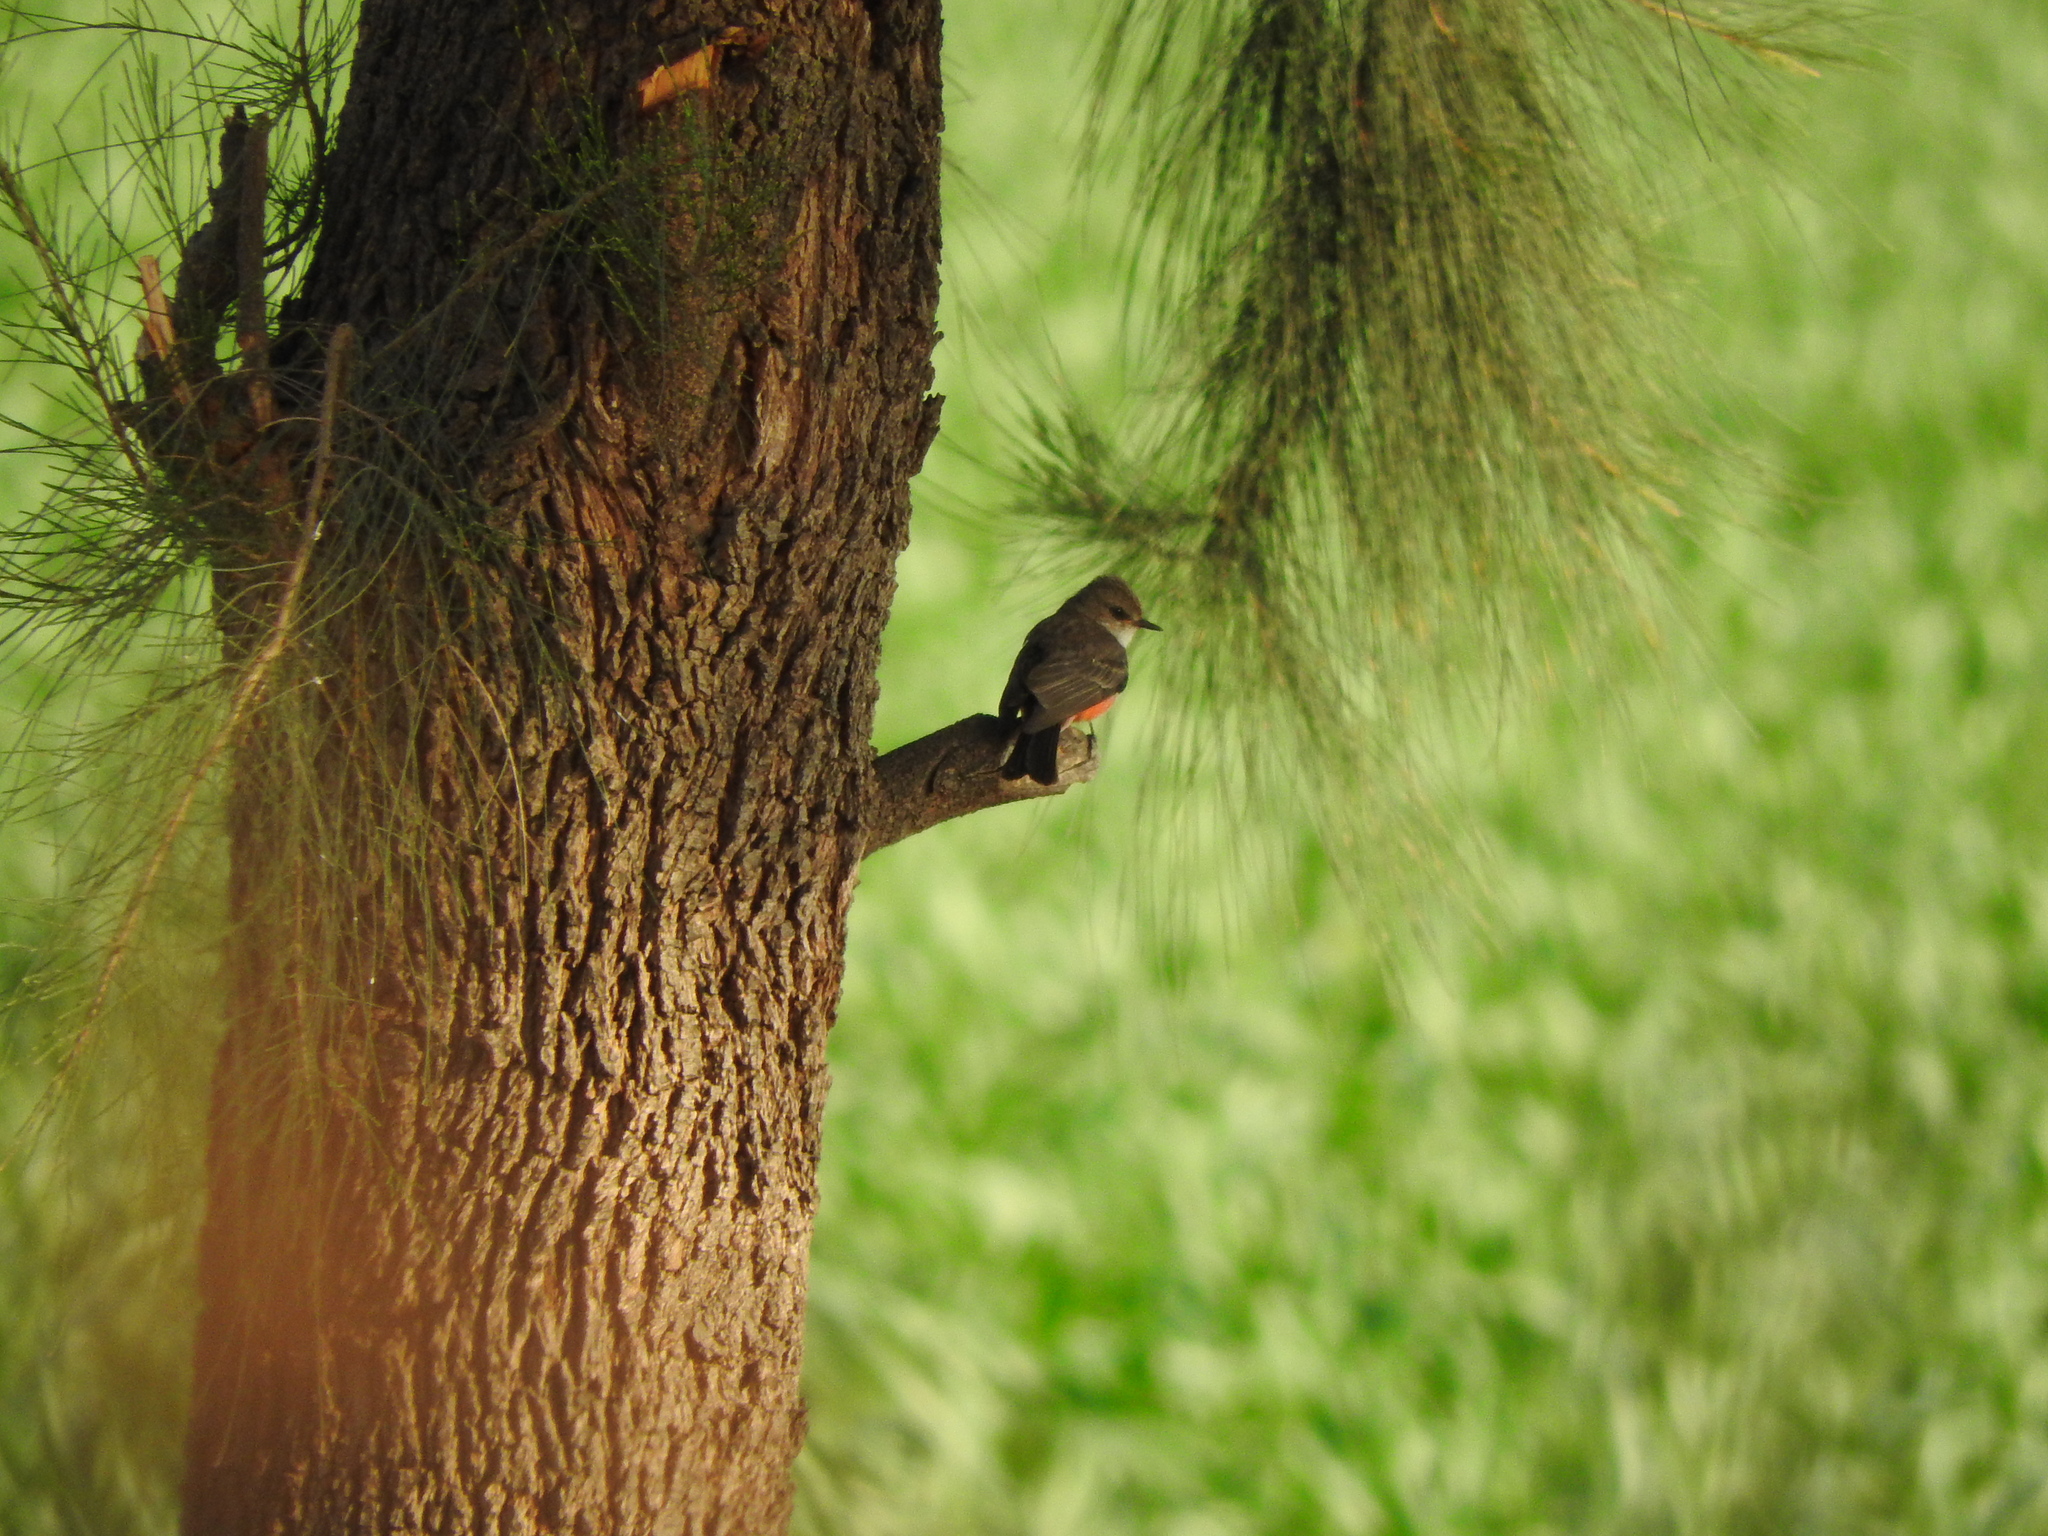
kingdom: Animalia
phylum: Chordata
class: Aves
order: Passeriformes
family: Tyrannidae
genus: Pyrocephalus
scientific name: Pyrocephalus rubinus
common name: Vermilion flycatcher
